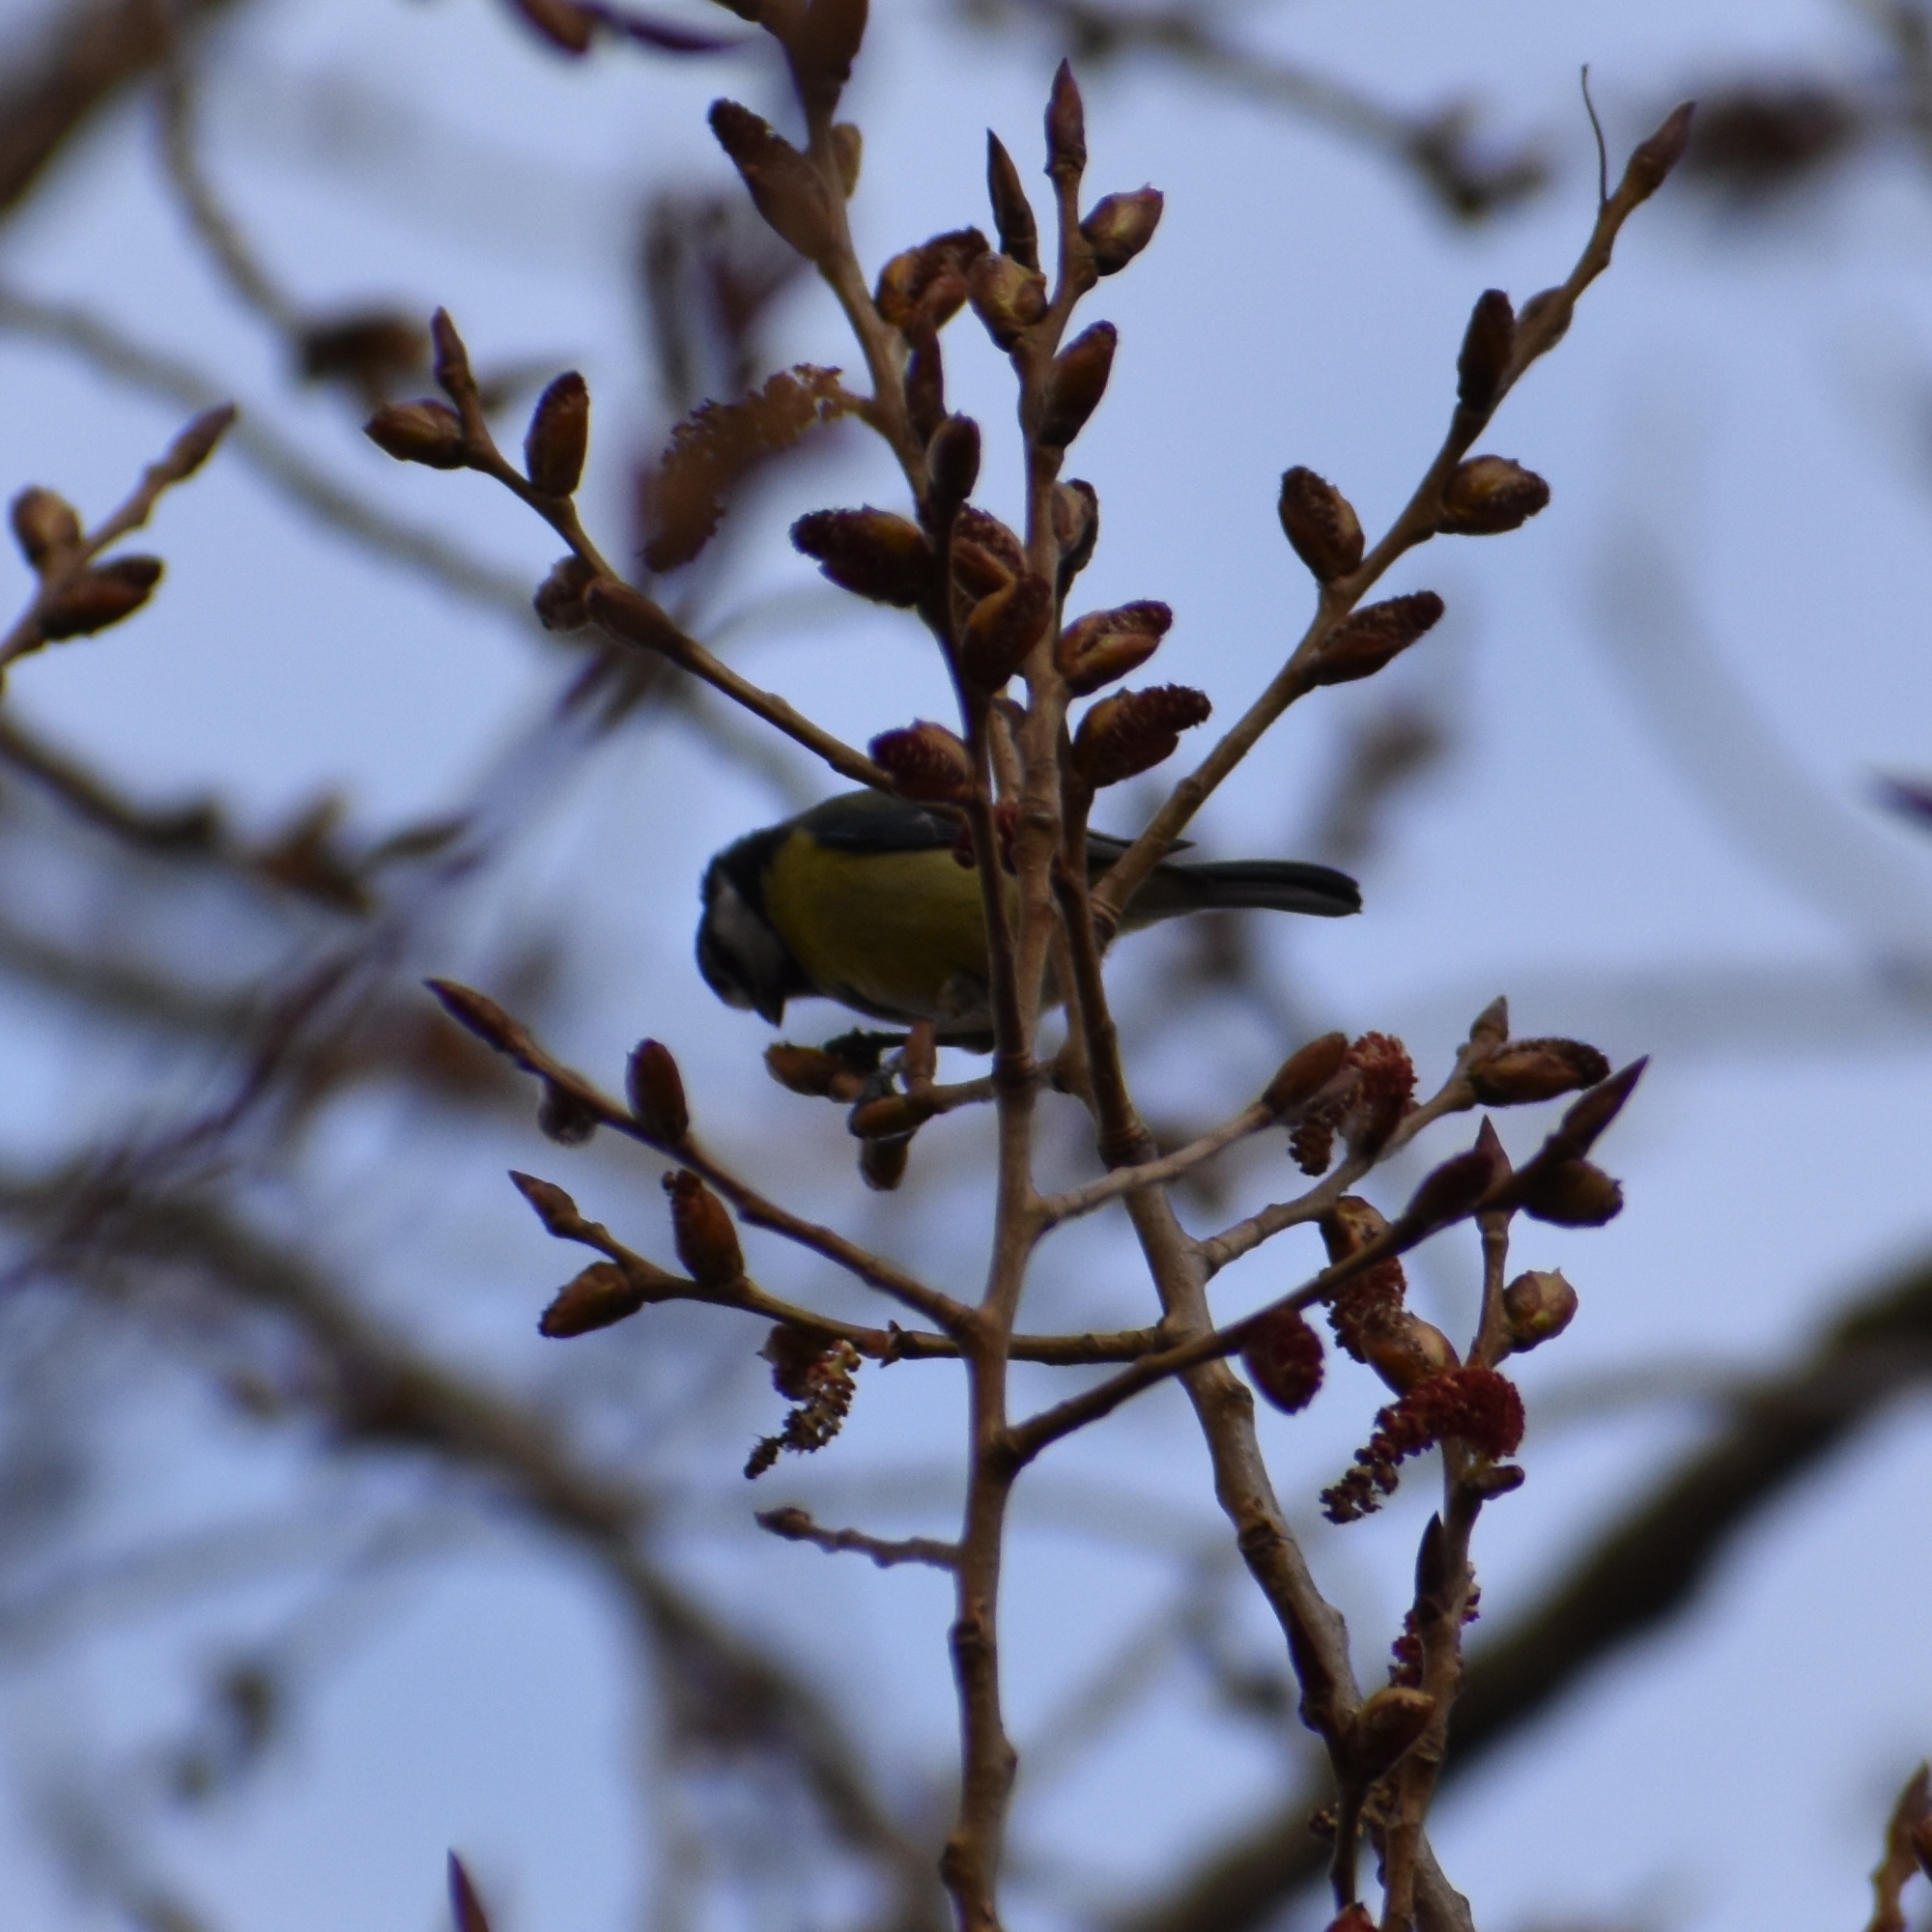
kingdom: Animalia
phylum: Chordata
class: Aves
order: Passeriformes
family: Paridae
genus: Cyanistes
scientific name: Cyanistes caeruleus
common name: Eurasian blue tit
